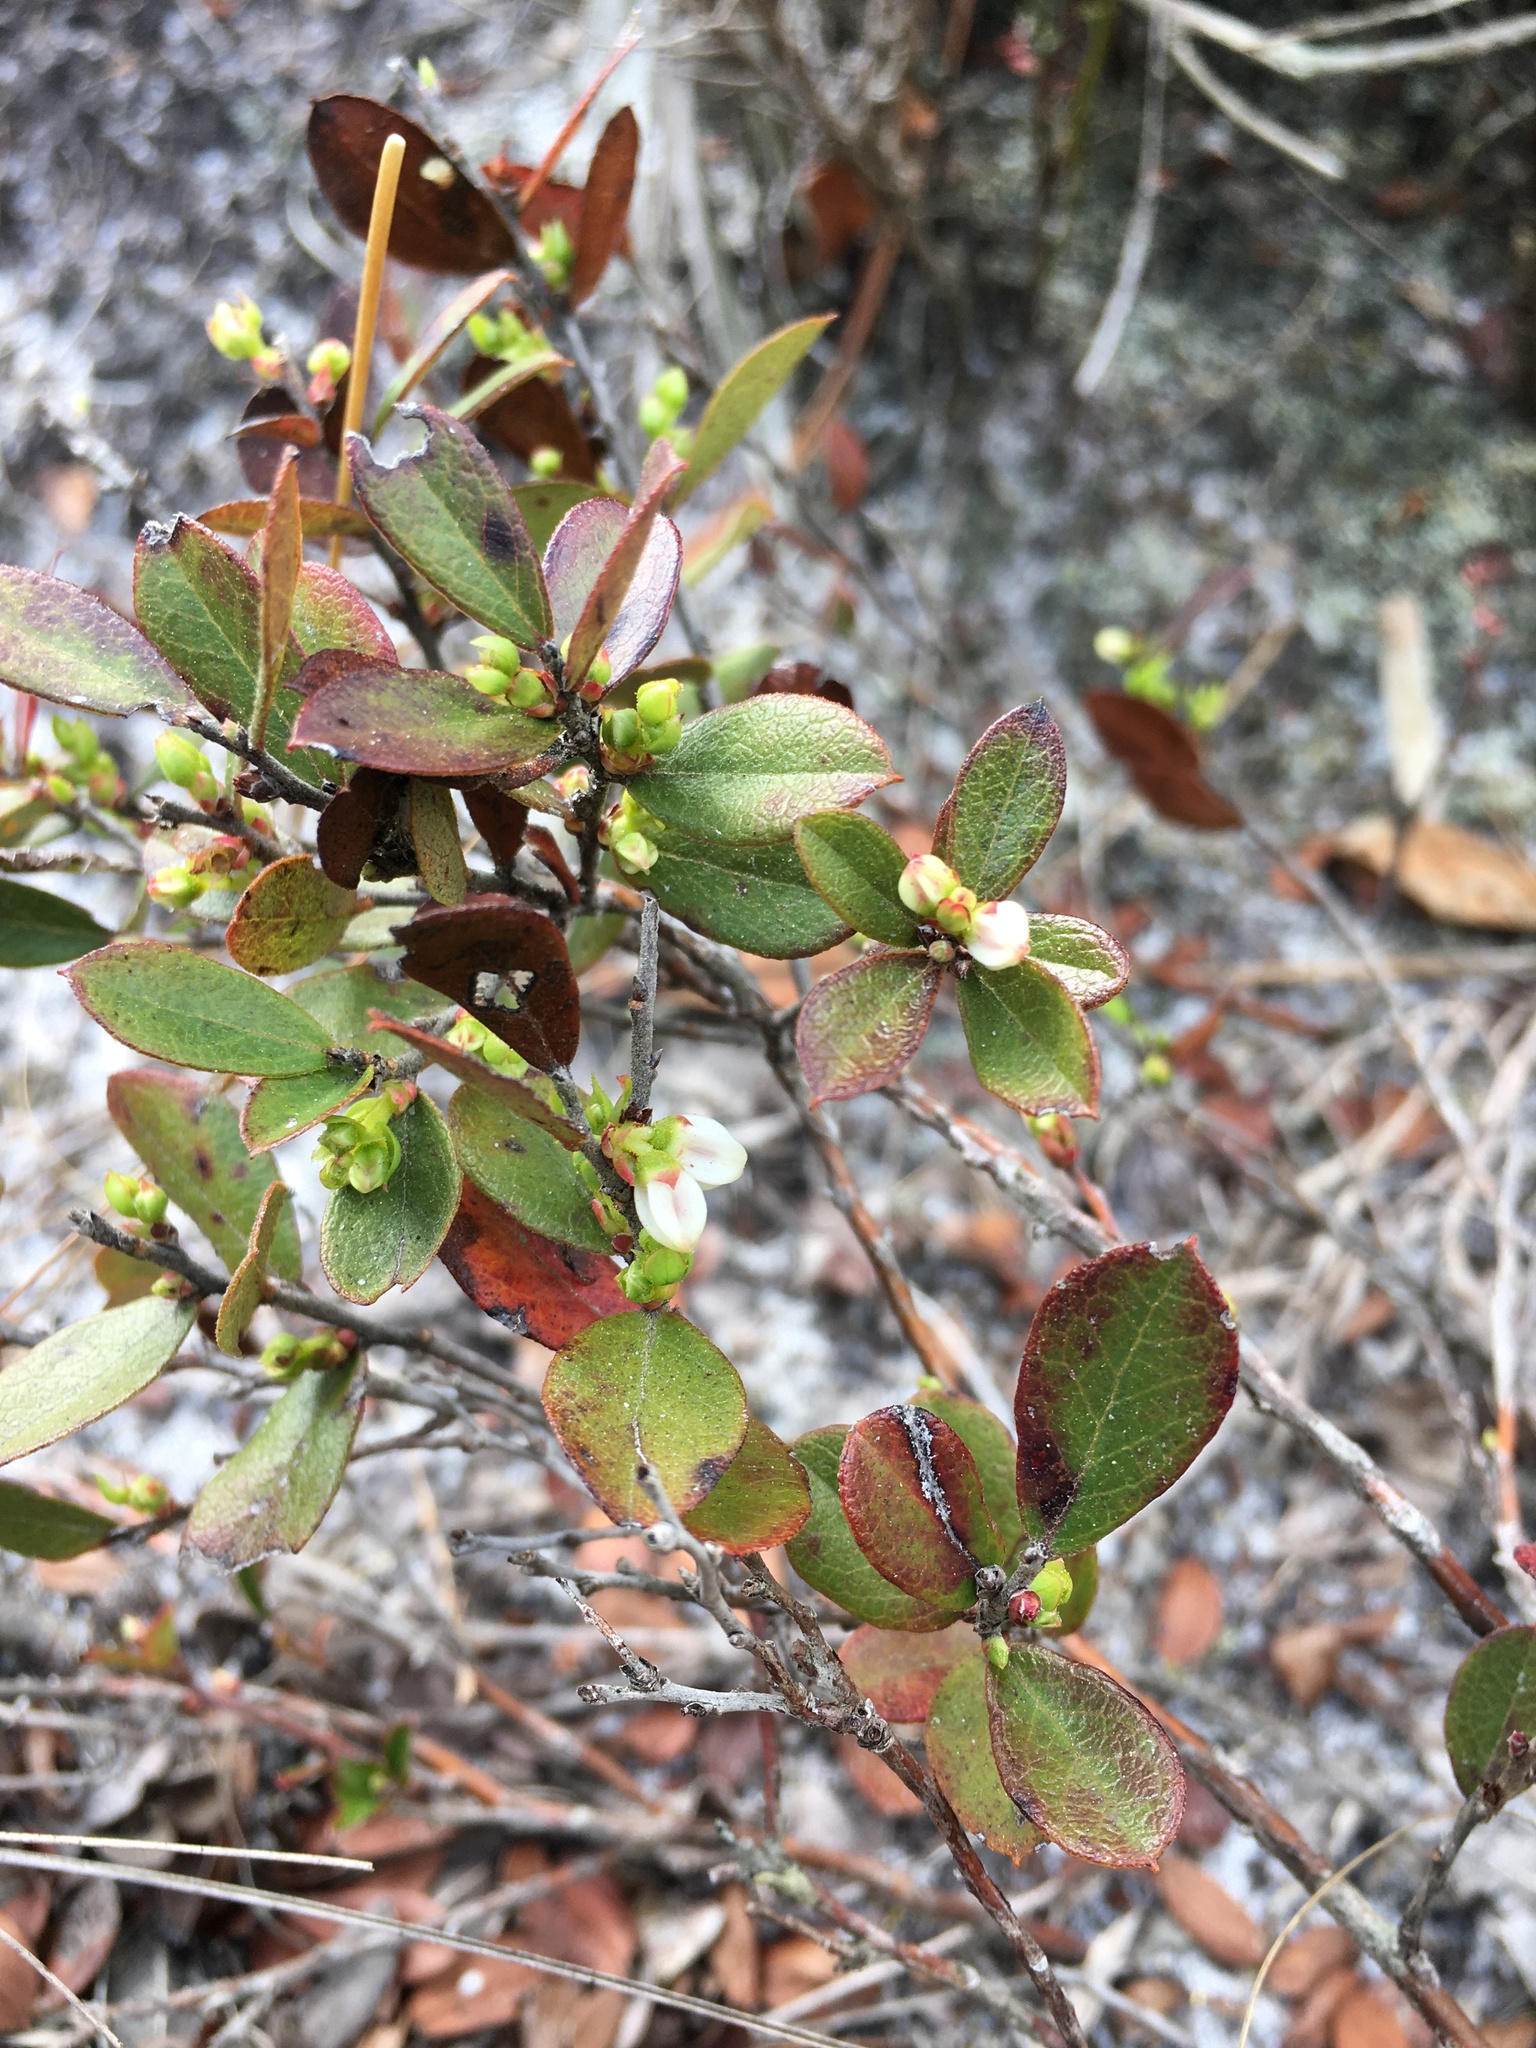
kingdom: Plantae
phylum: Tracheophyta
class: Magnoliopsida
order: Ericales
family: Ericaceae
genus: Gaylussacia
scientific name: Gaylussacia dumosa
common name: Dwarf huckleberry
